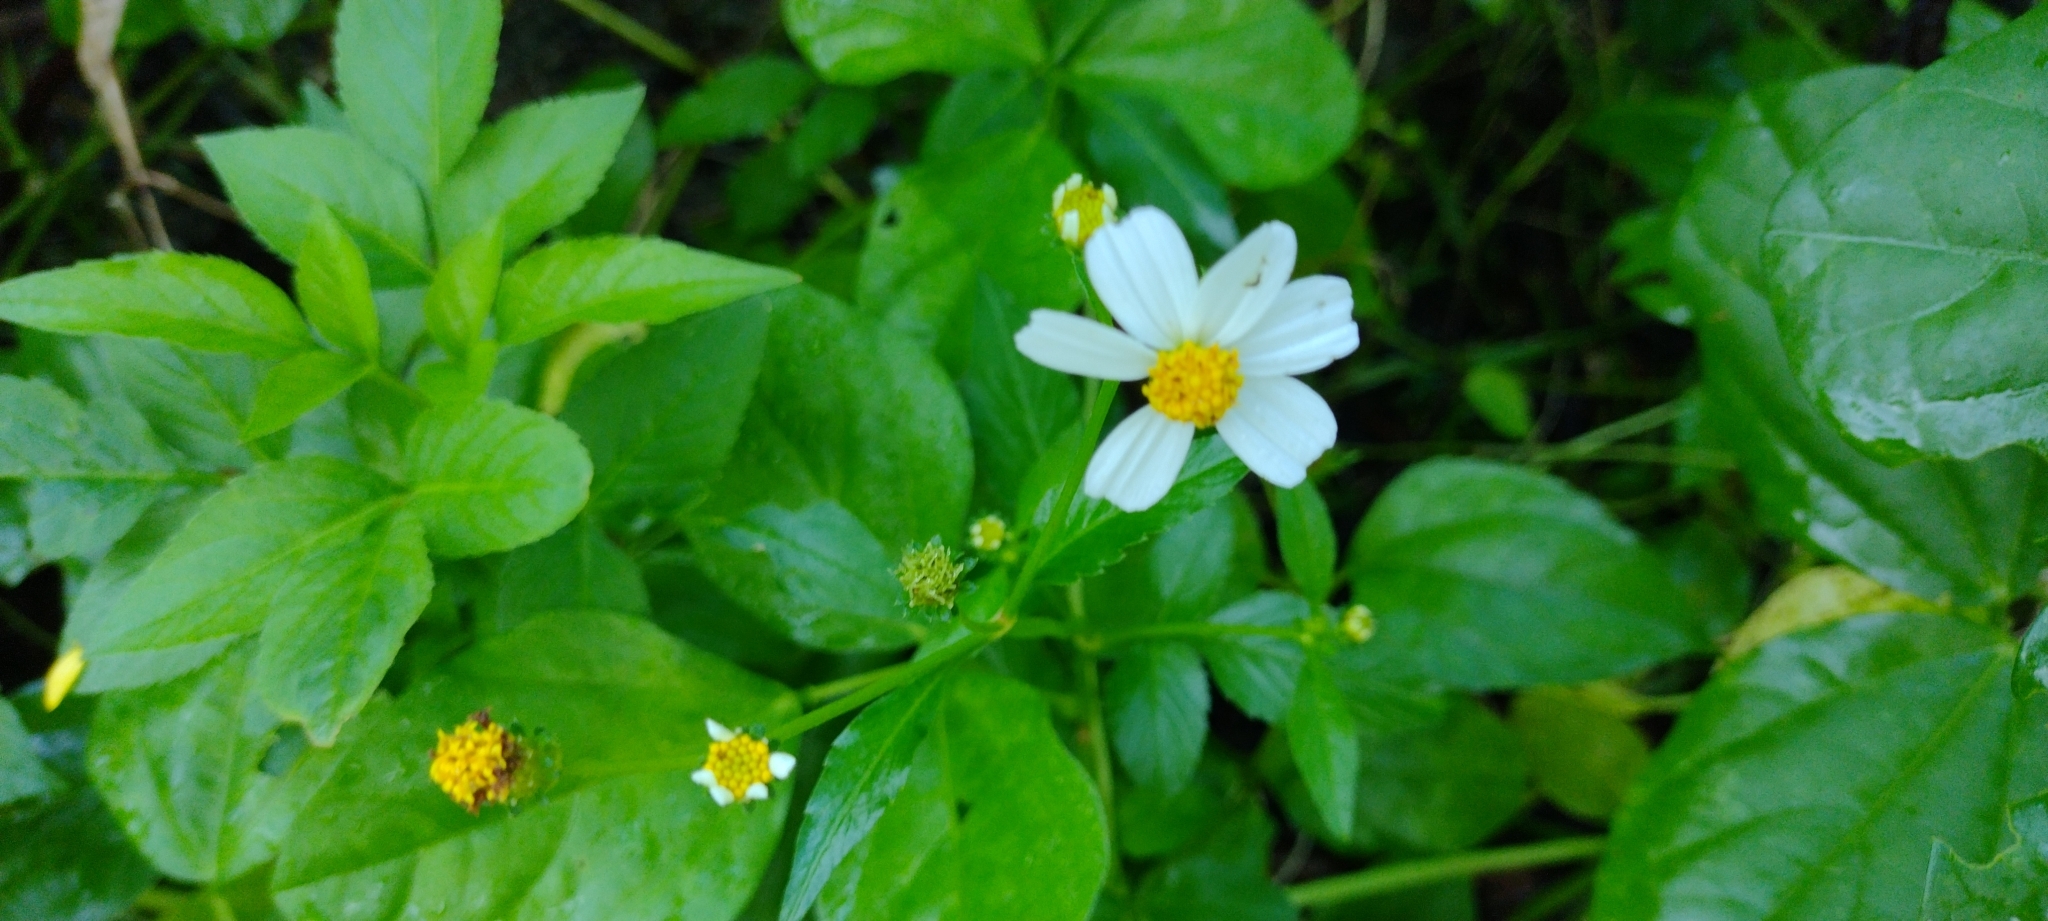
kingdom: Plantae
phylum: Tracheophyta
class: Magnoliopsida
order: Asterales
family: Asteraceae
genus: Bidens
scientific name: Bidens alba
